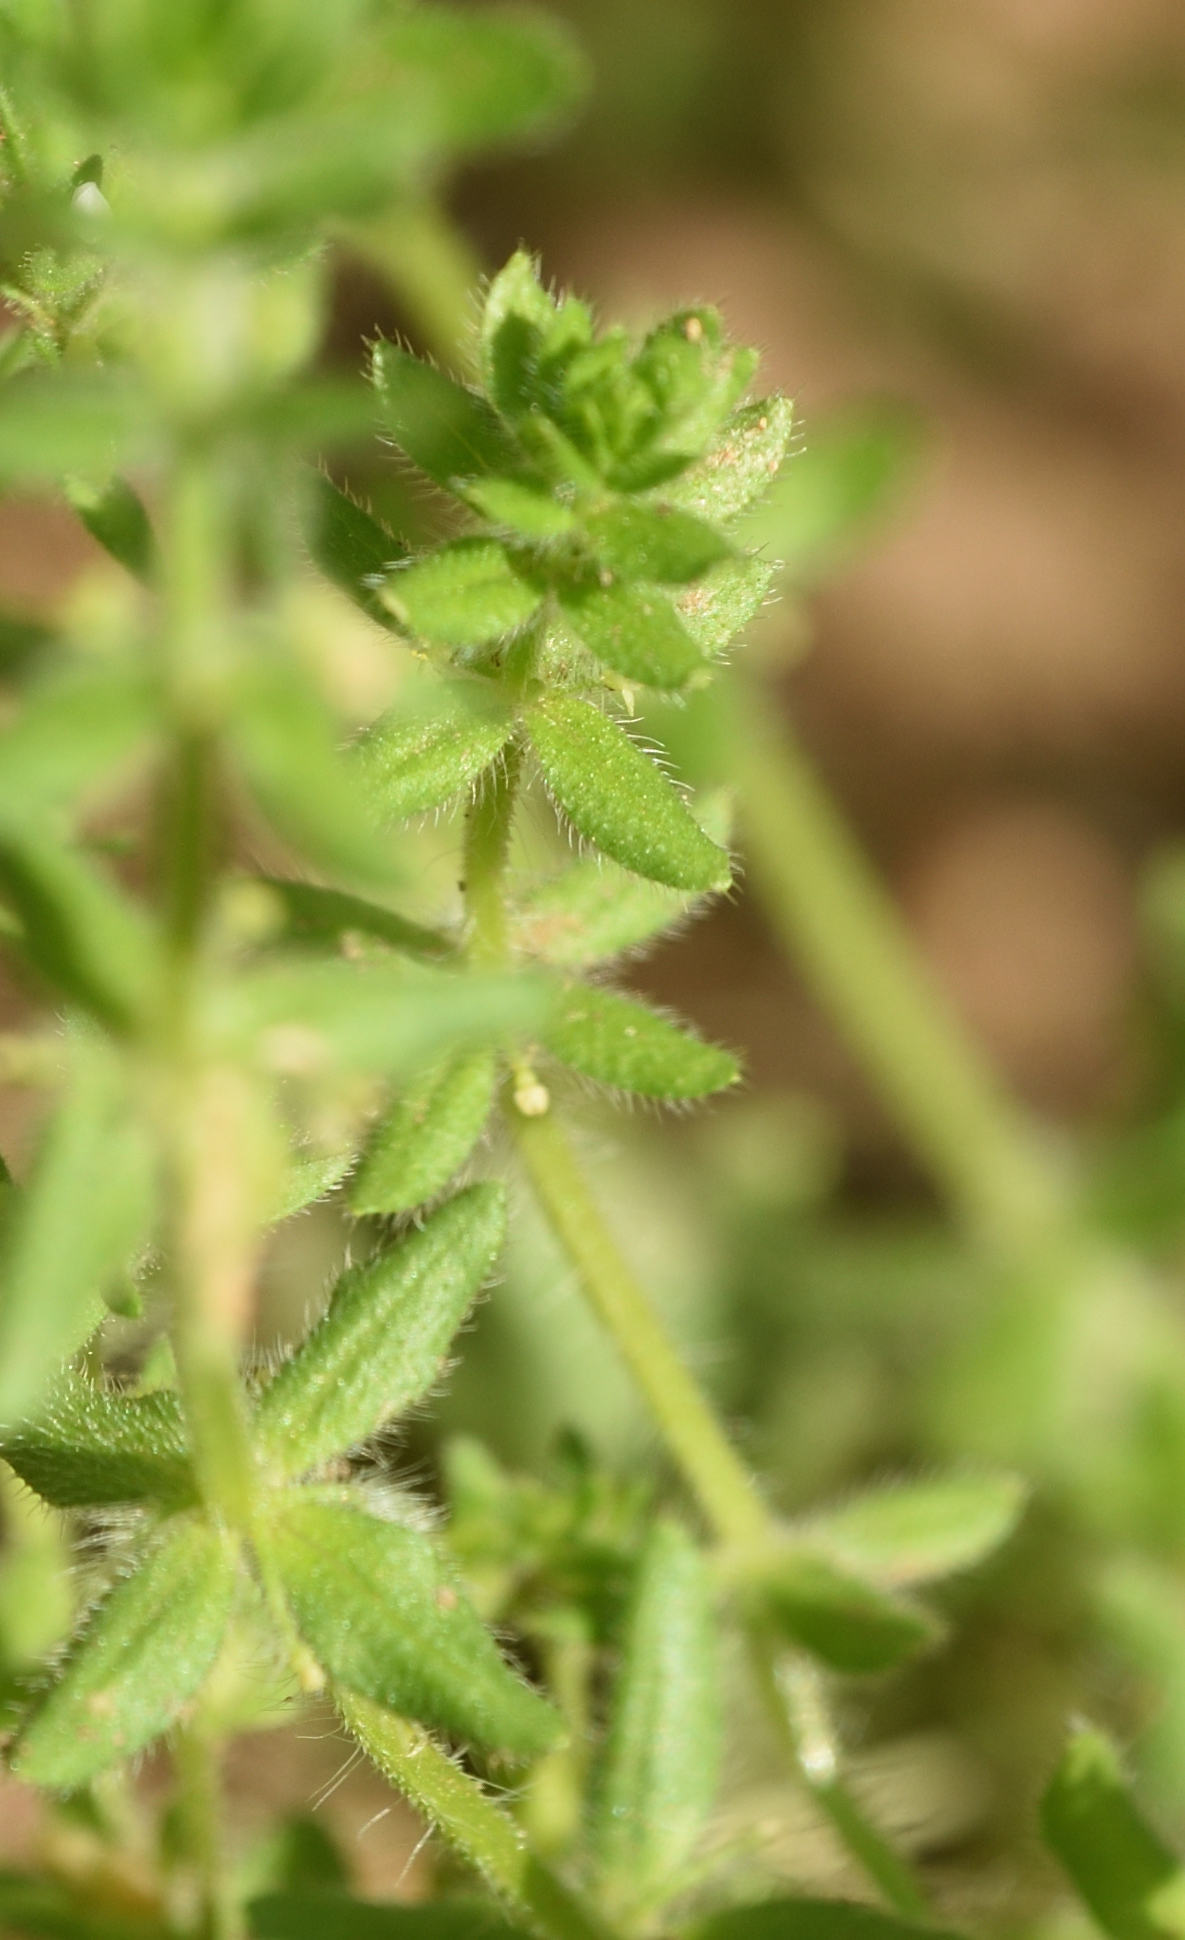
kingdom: Plantae
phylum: Tracheophyta
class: Magnoliopsida
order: Gentianales
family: Rubiaceae
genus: Cruciata
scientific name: Cruciata pedemontana
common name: Piedmont bedstraw
